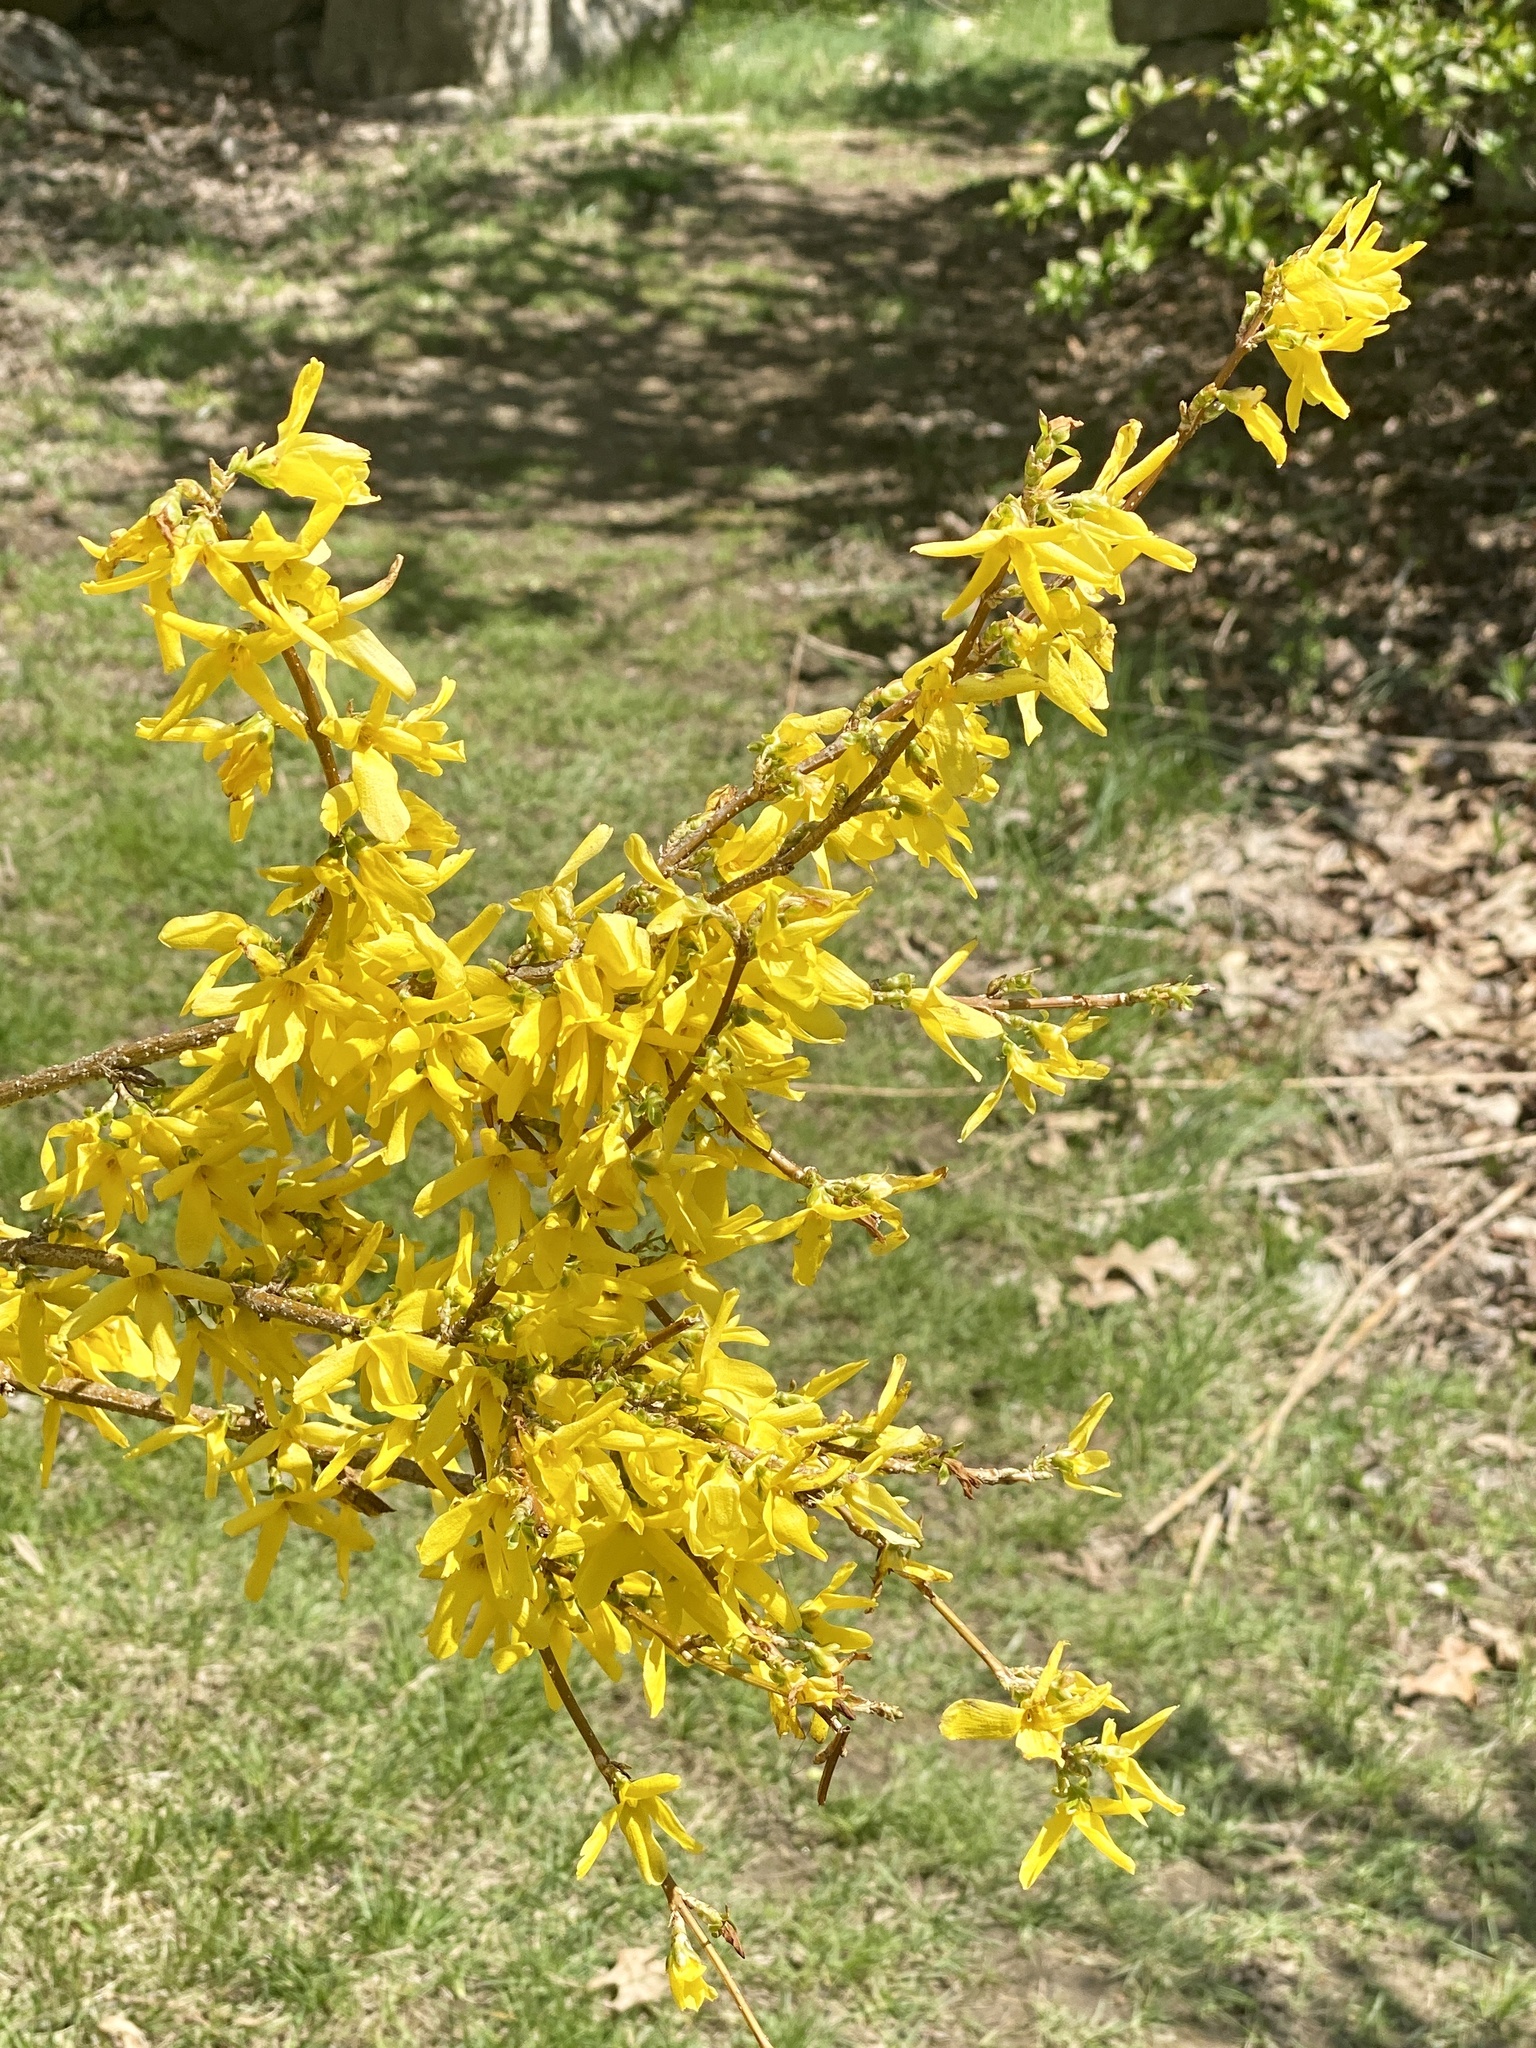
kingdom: Plantae
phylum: Tracheophyta
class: Magnoliopsida
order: Lamiales
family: Oleaceae
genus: Forsythia
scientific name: Forsythia intermedia
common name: Forsythia
